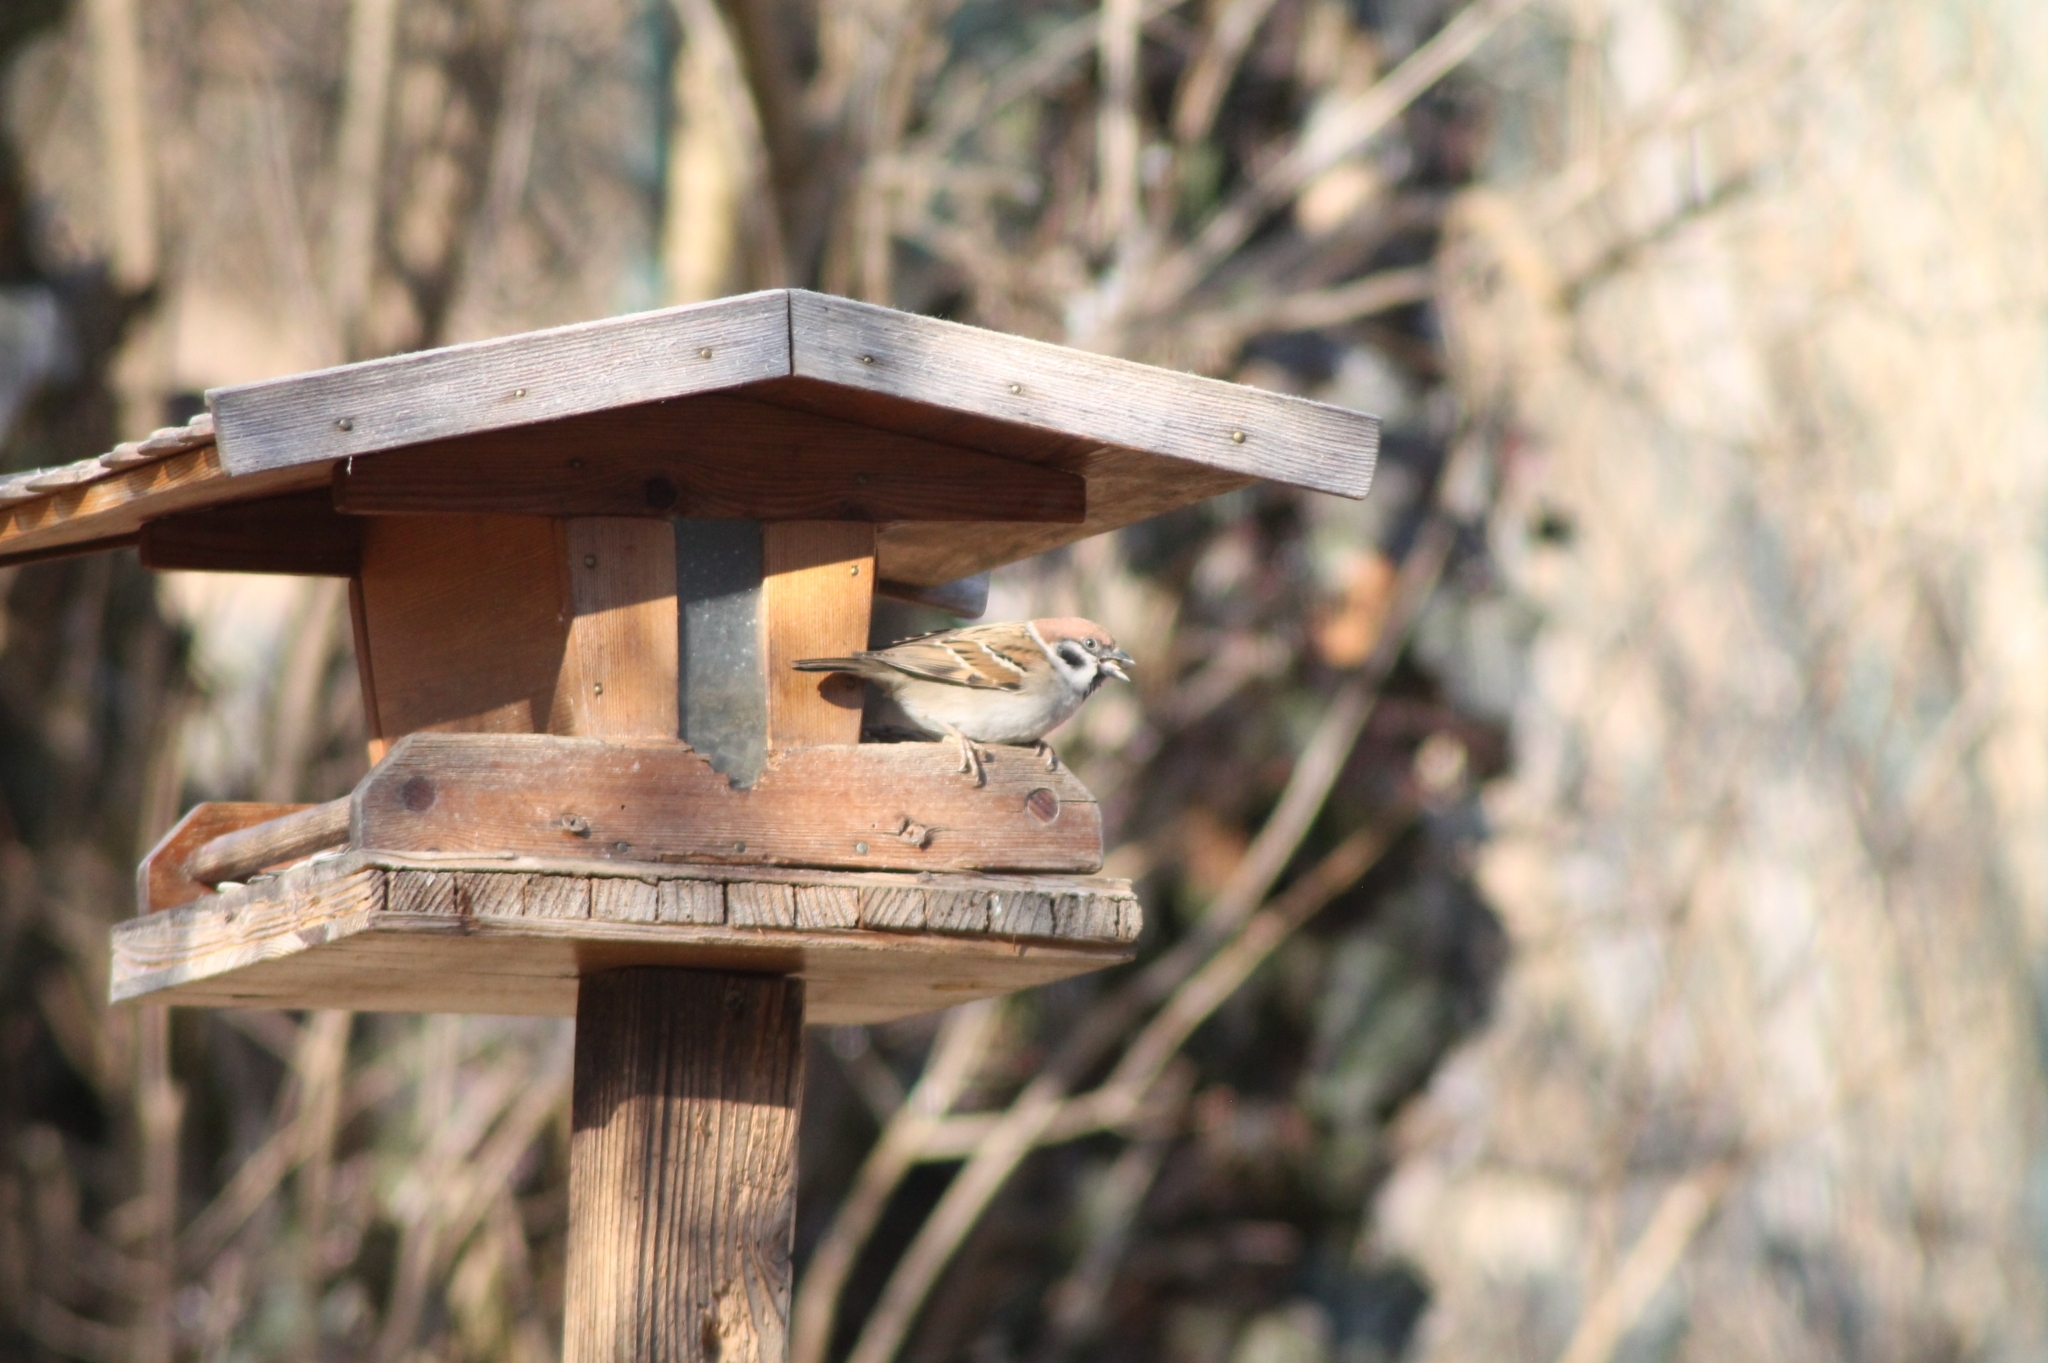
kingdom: Animalia
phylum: Chordata
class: Aves
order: Passeriformes
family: Passeridae
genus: Passer
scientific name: Passer montanus
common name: Eurasian tree sparrow
